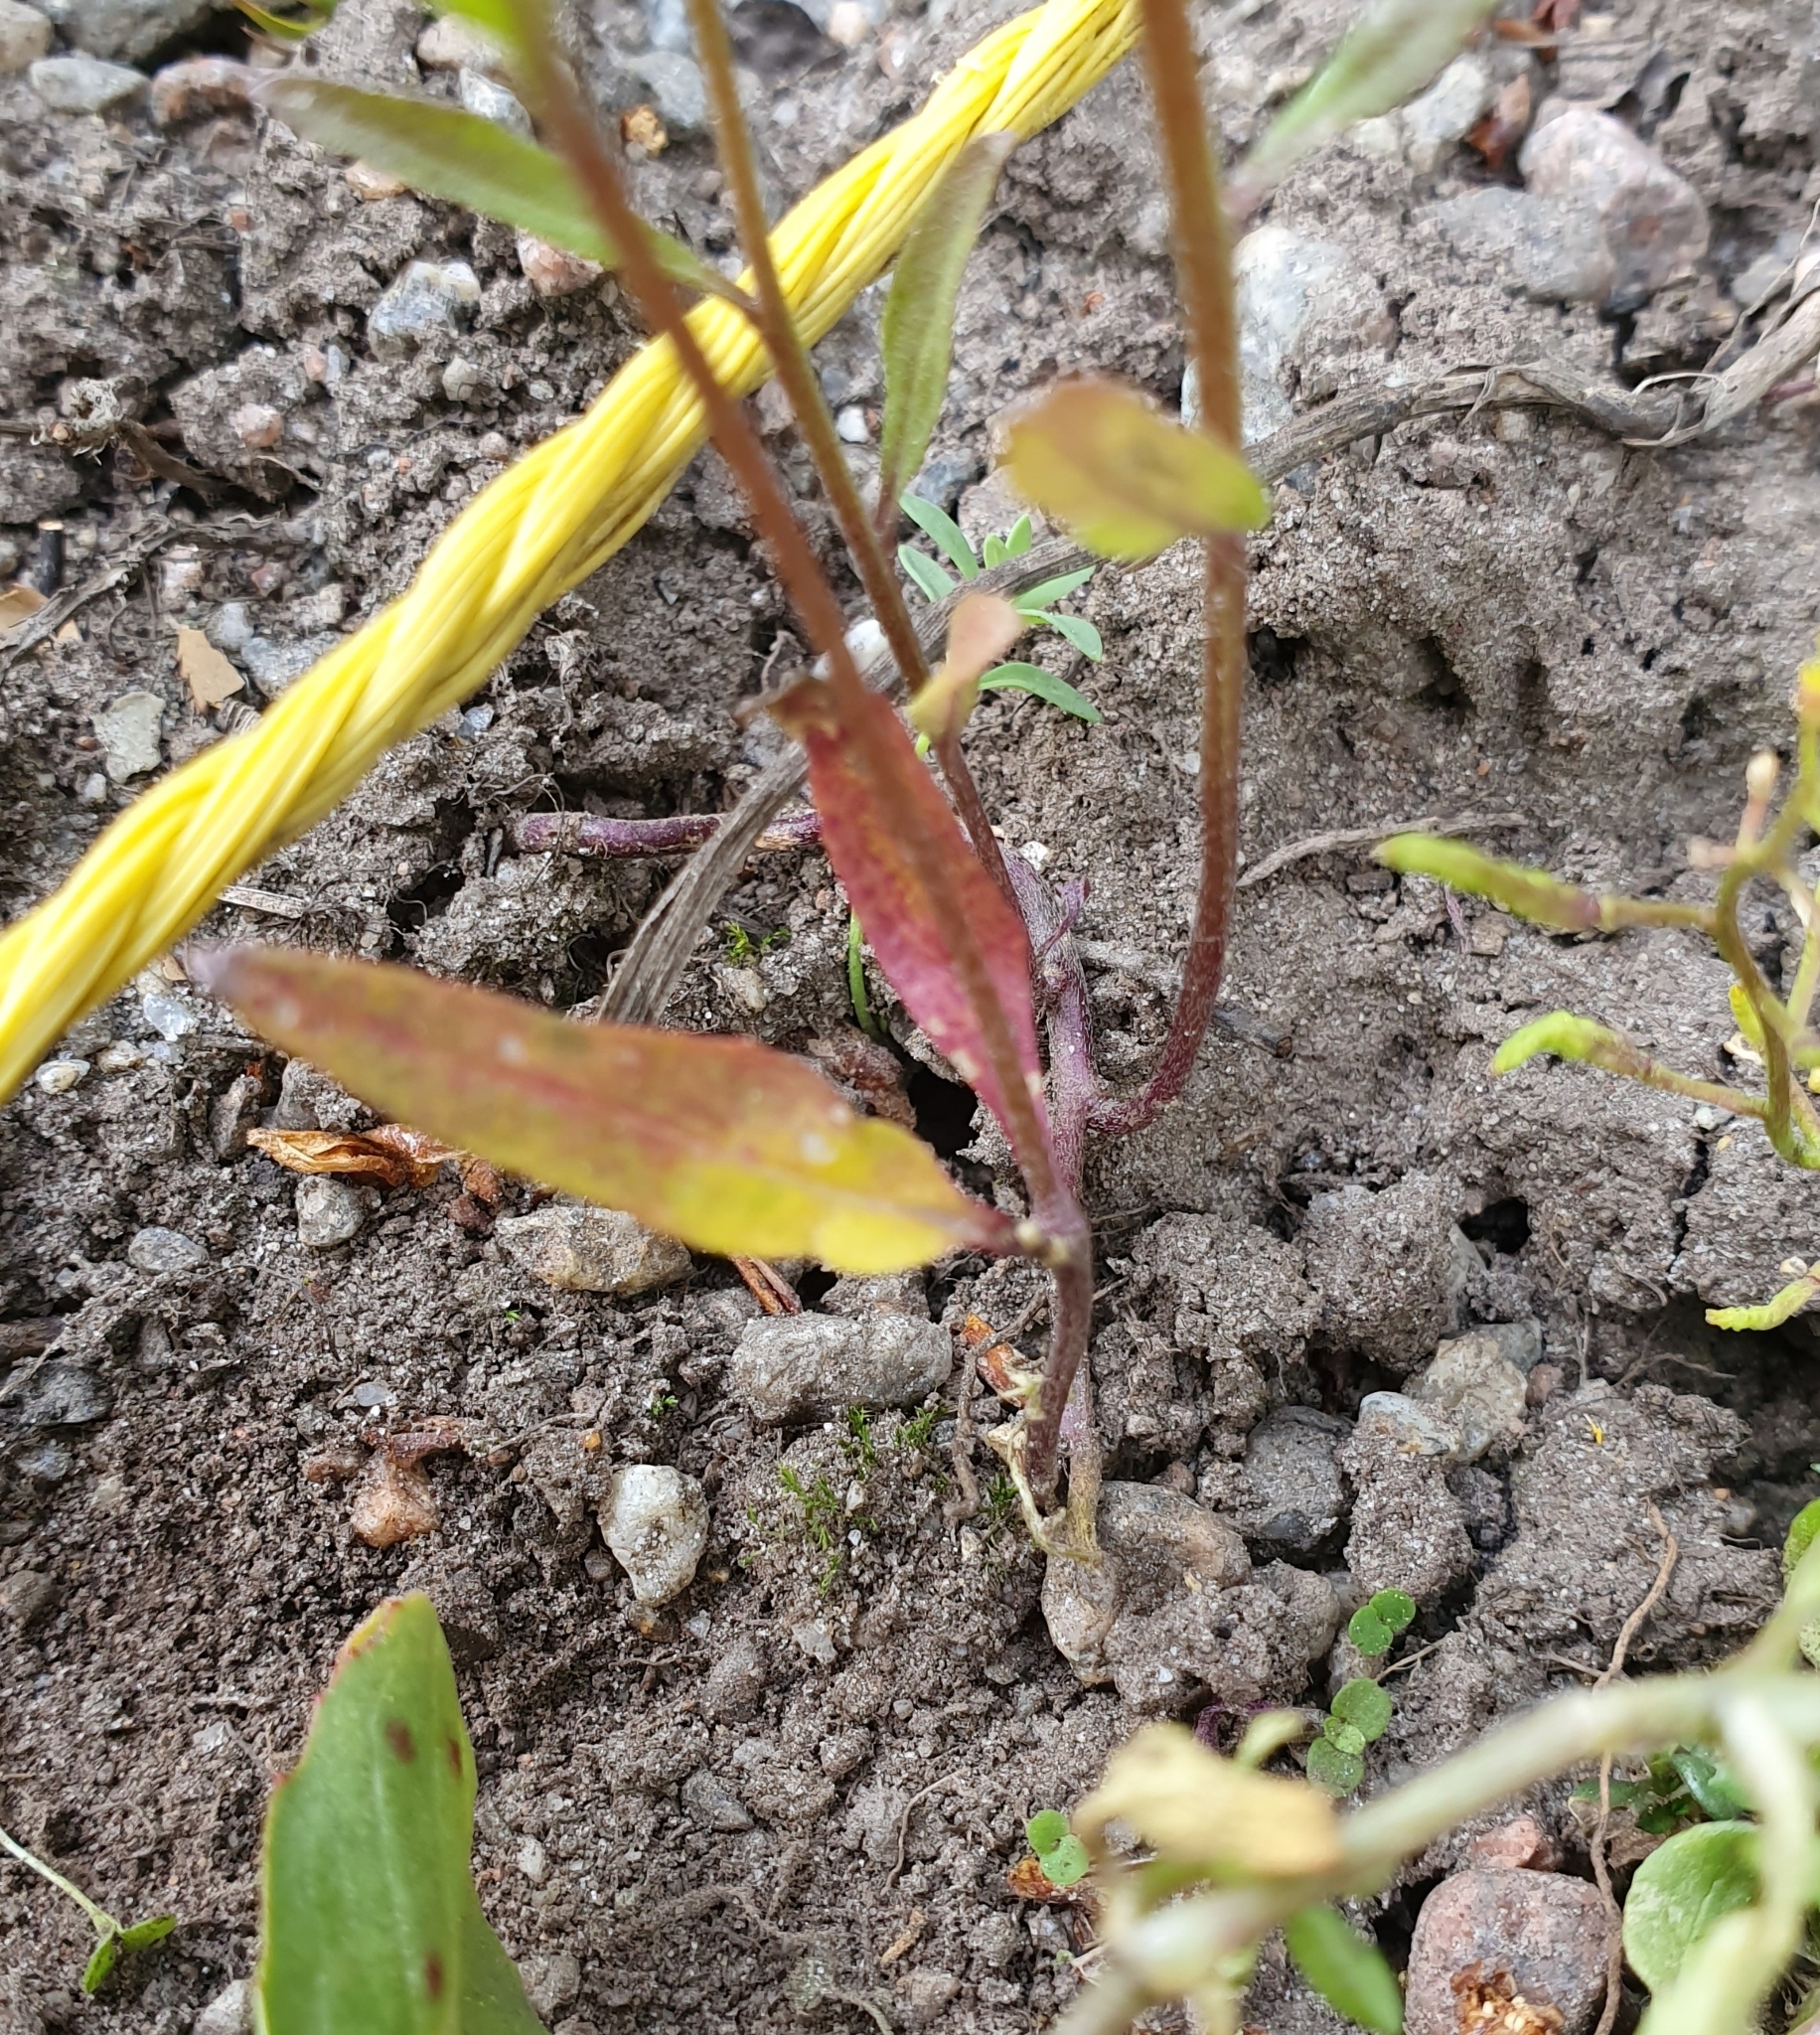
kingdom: Plantae
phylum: Tracheophyta
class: Magnoliopsida
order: Brassicales
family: Brassicaceae
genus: Erysimum
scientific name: Erysimum cheiranthoides
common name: Treacle mustard
